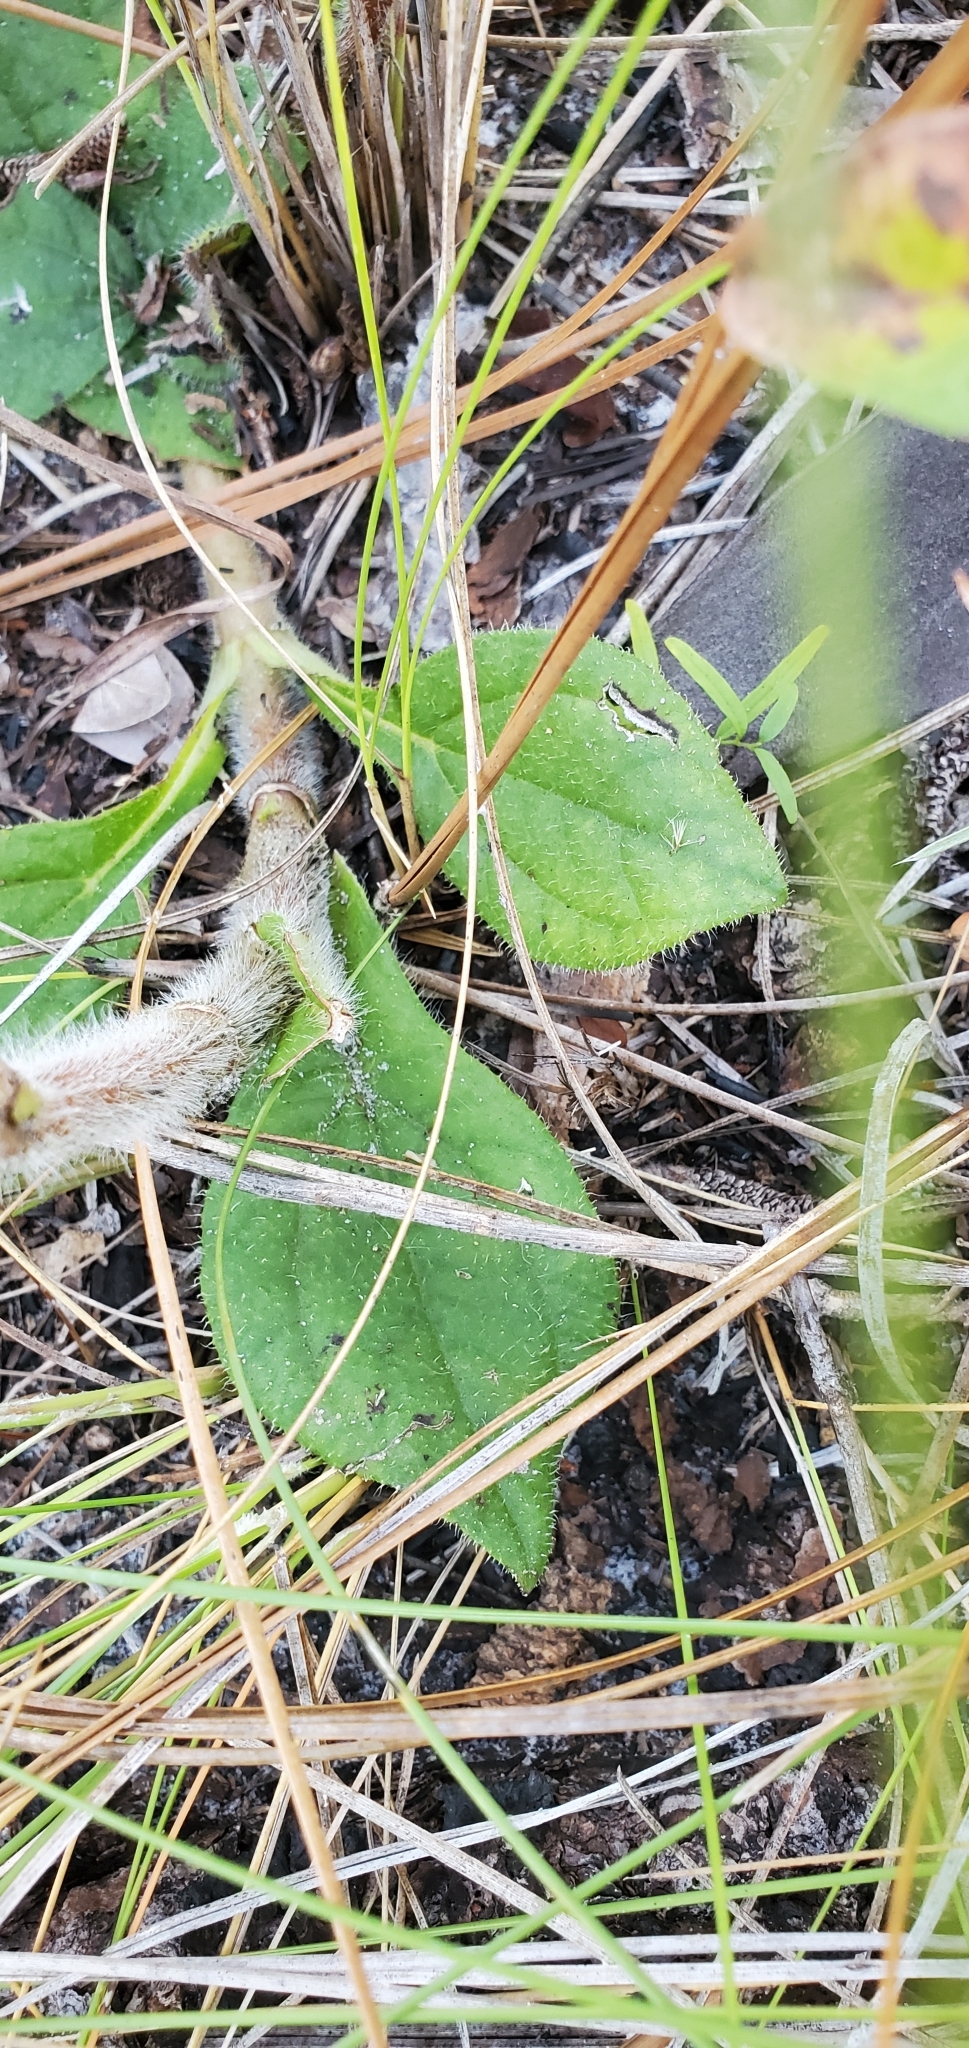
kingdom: Plantae
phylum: Tracheophyta
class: Magnoliopsida
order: Asterales
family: Asteraceae
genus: Helianthus
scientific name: Helianthus radula
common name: Pineland sunflower
